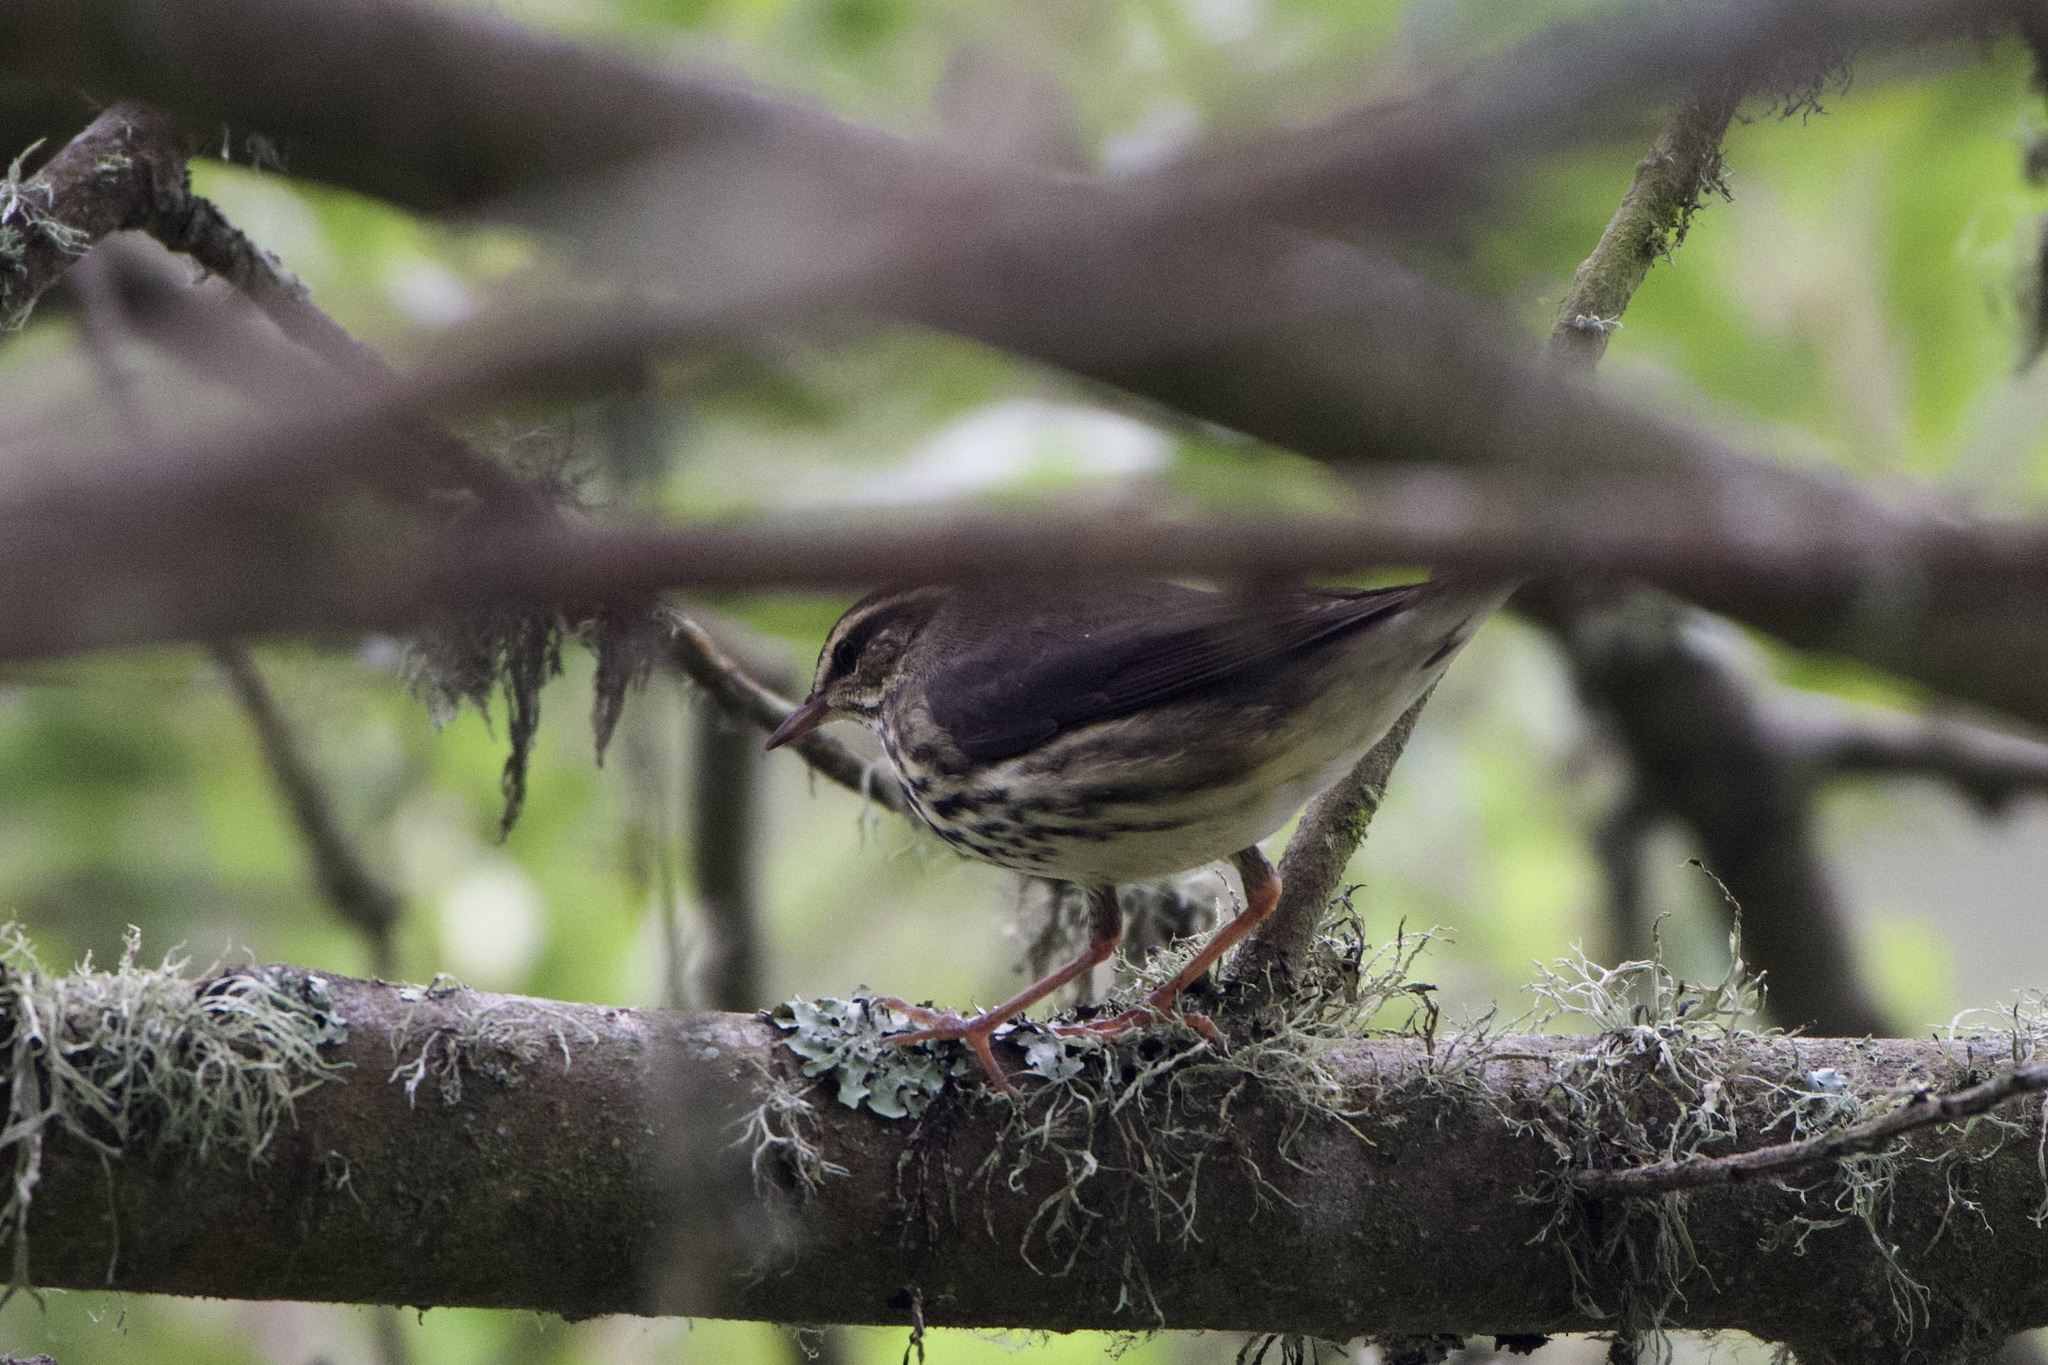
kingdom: Animalia
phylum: Chordata
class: Aves
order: Passeriformes
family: Parulidae
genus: Parkesia
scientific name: Parkesia noveboracensis
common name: Northern waterthrush
